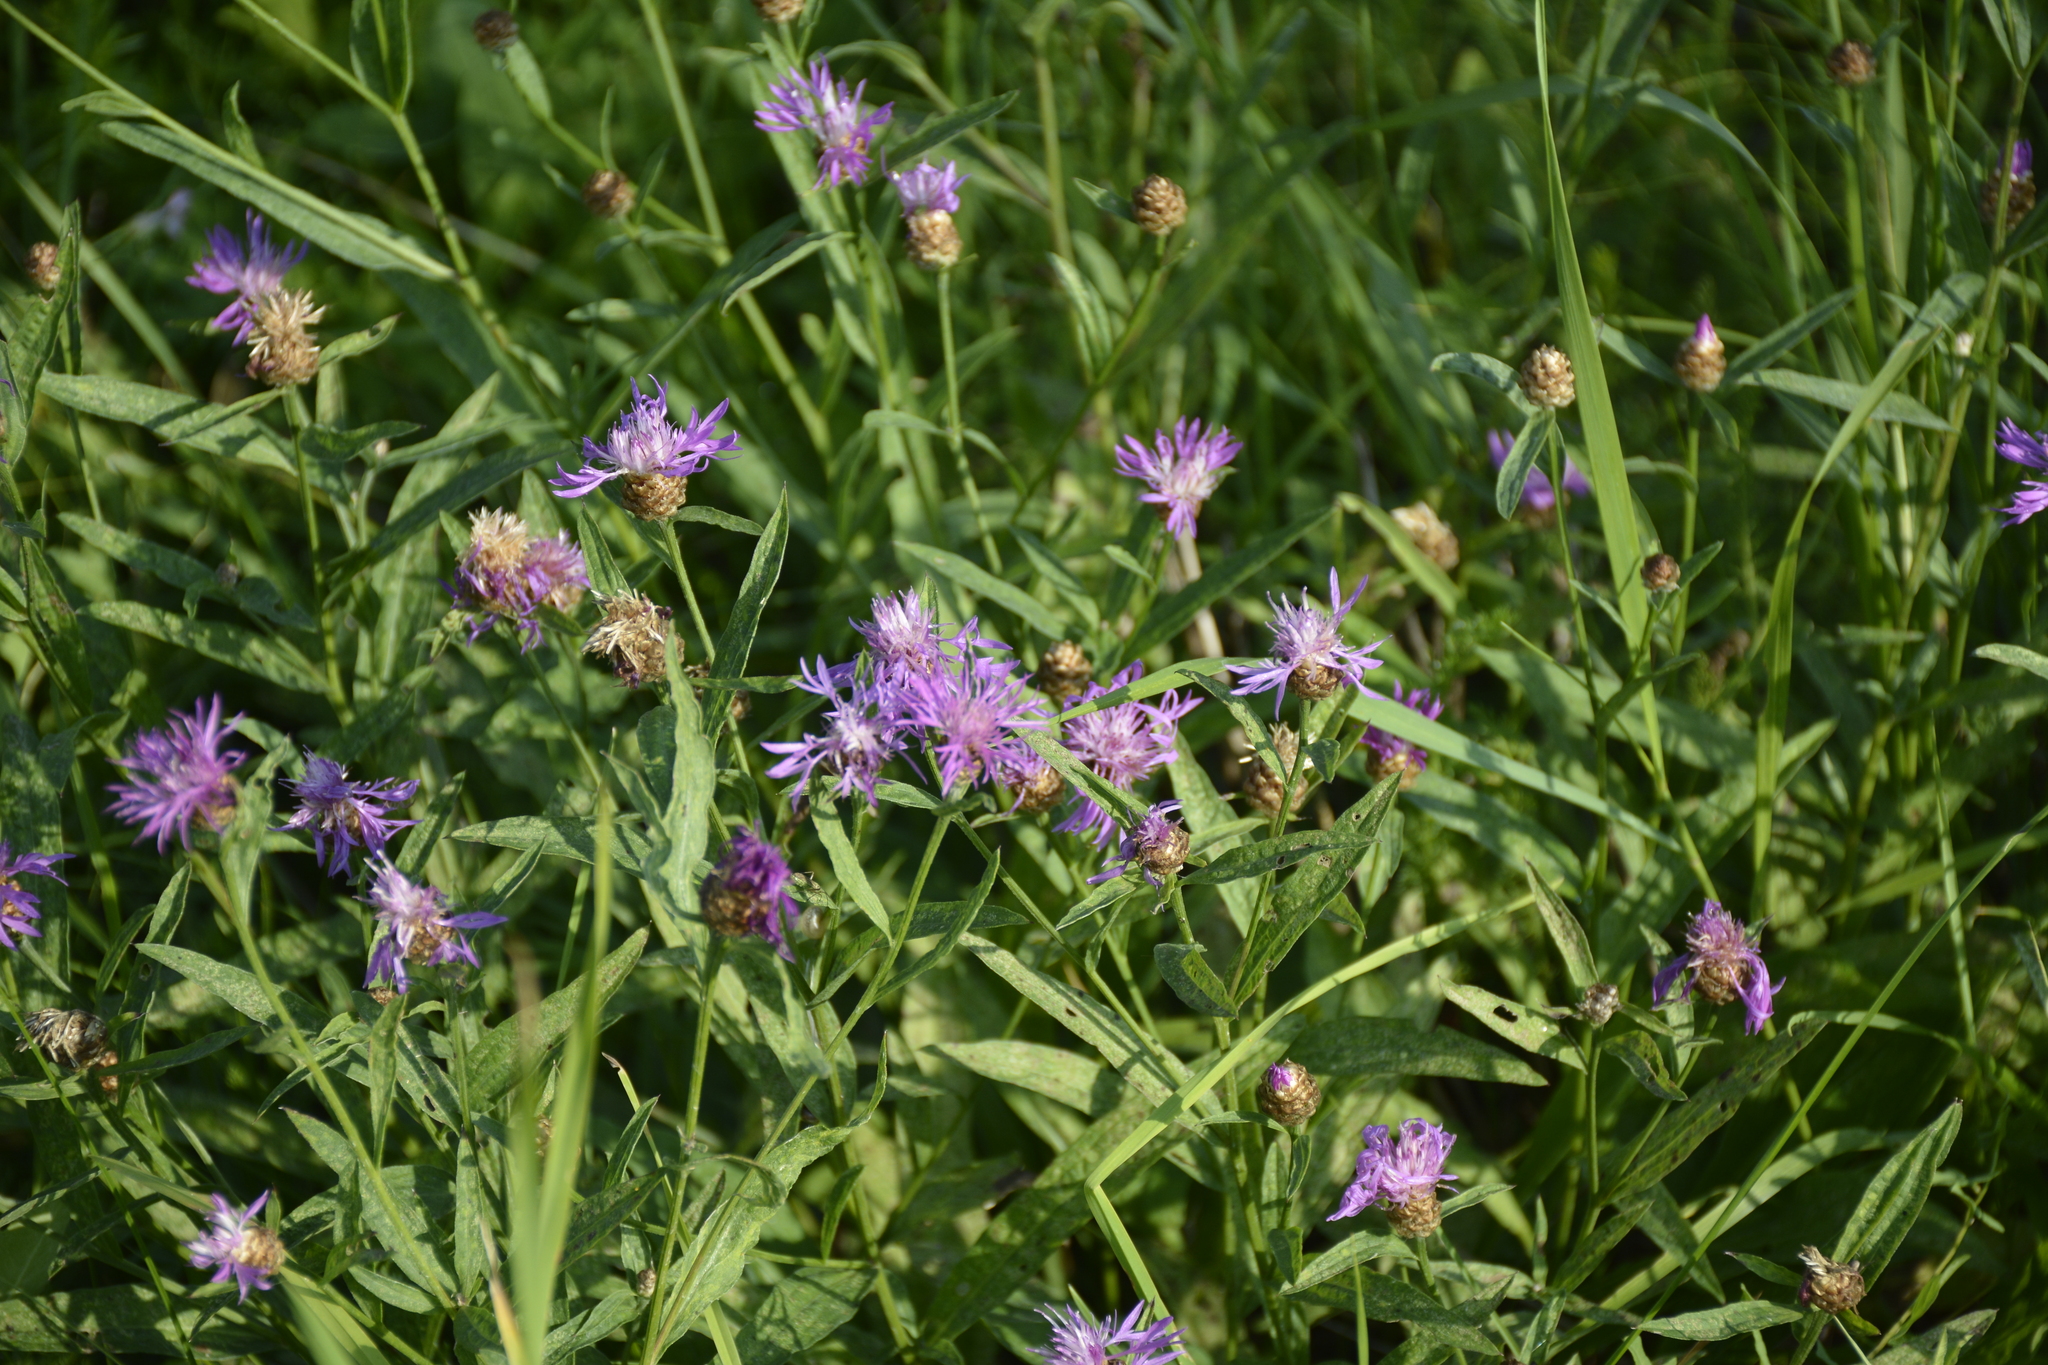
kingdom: Plantae
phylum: Tracheophyta
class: Magnoliopsida
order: Asterales
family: Asteraceae
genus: Centaurea
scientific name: Centaurea jacea
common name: Brown knapweed
